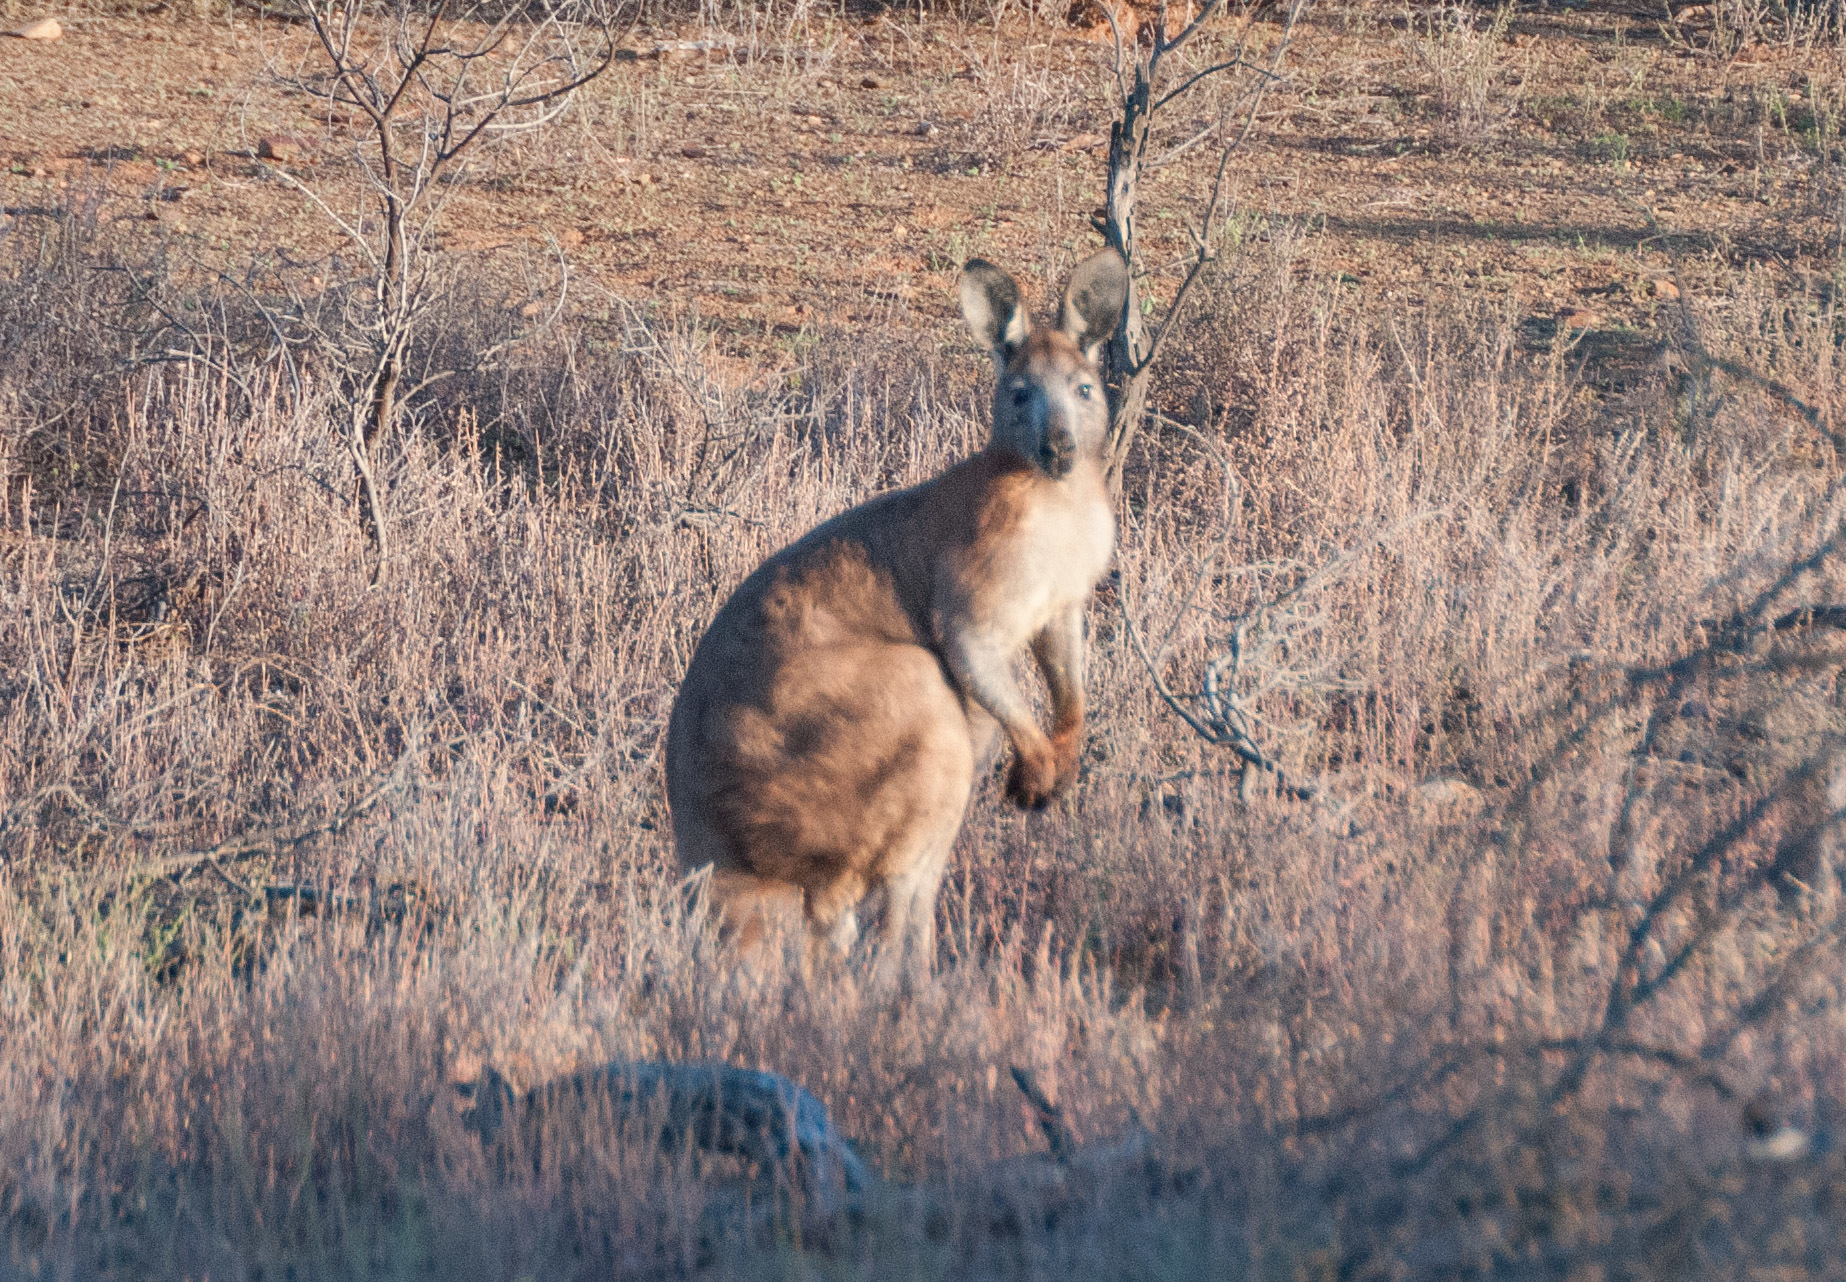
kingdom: Animalia
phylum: Chordata
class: Mammalia
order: Diprotodontia
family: Macropodidae
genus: Macropus
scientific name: Macropus robustus
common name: Eastern wallaroo
